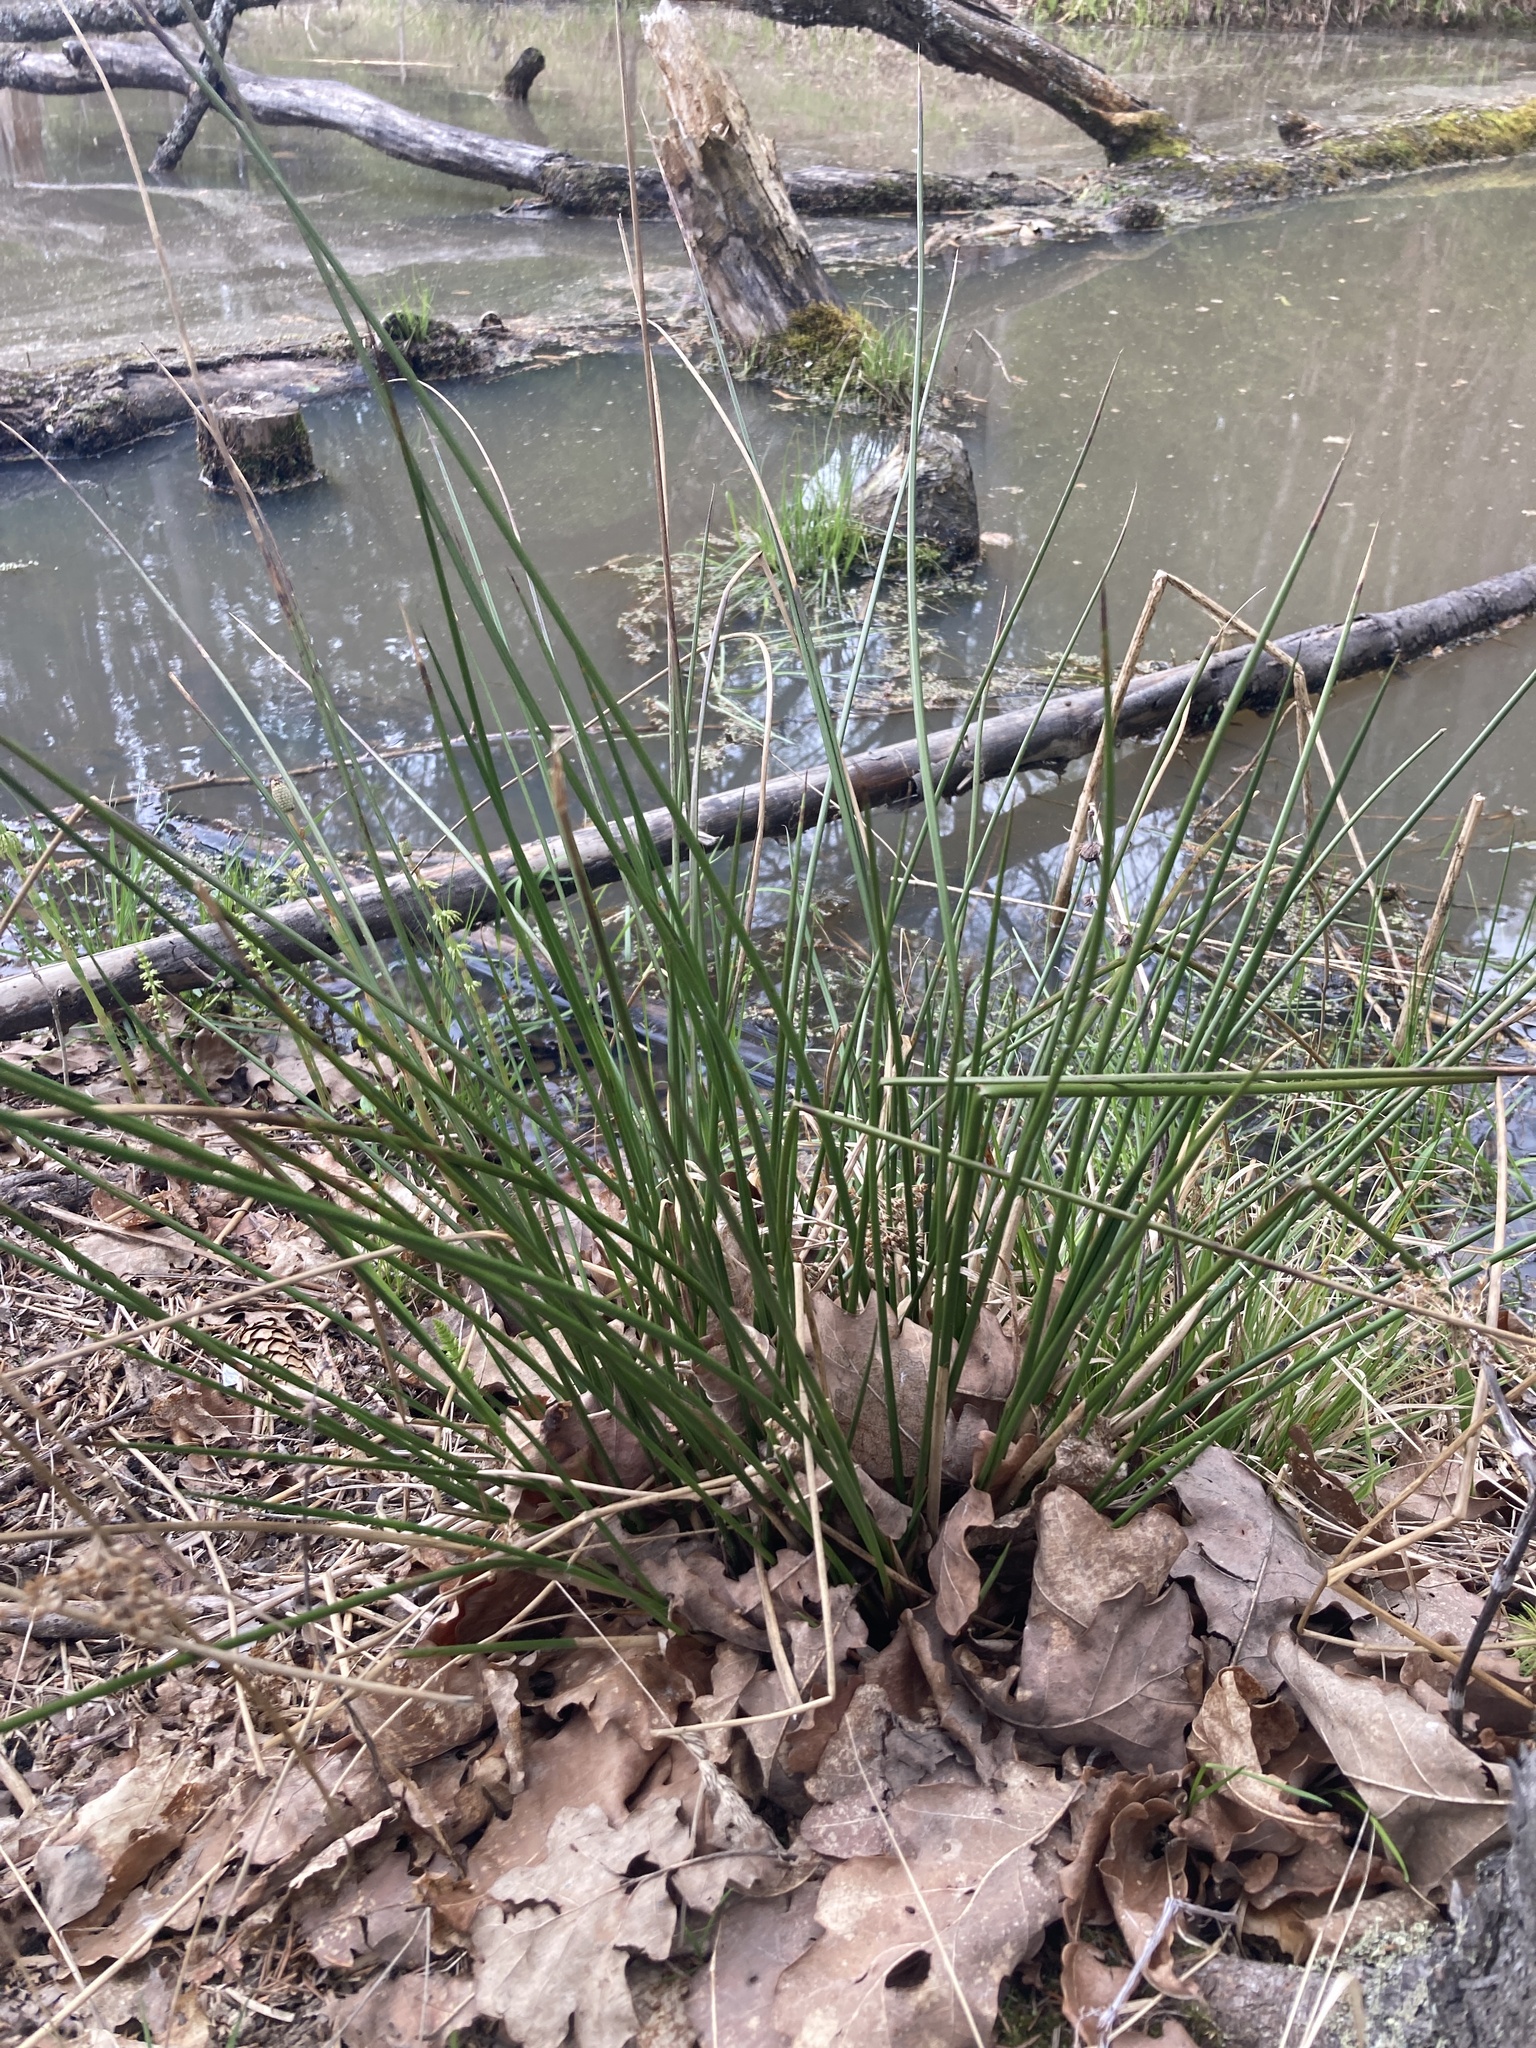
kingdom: Plantae
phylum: Tracheophyta
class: Liliopsida
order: Poales
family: Juncaceae
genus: Juncus
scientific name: Juncus effusus
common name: Soft rush
